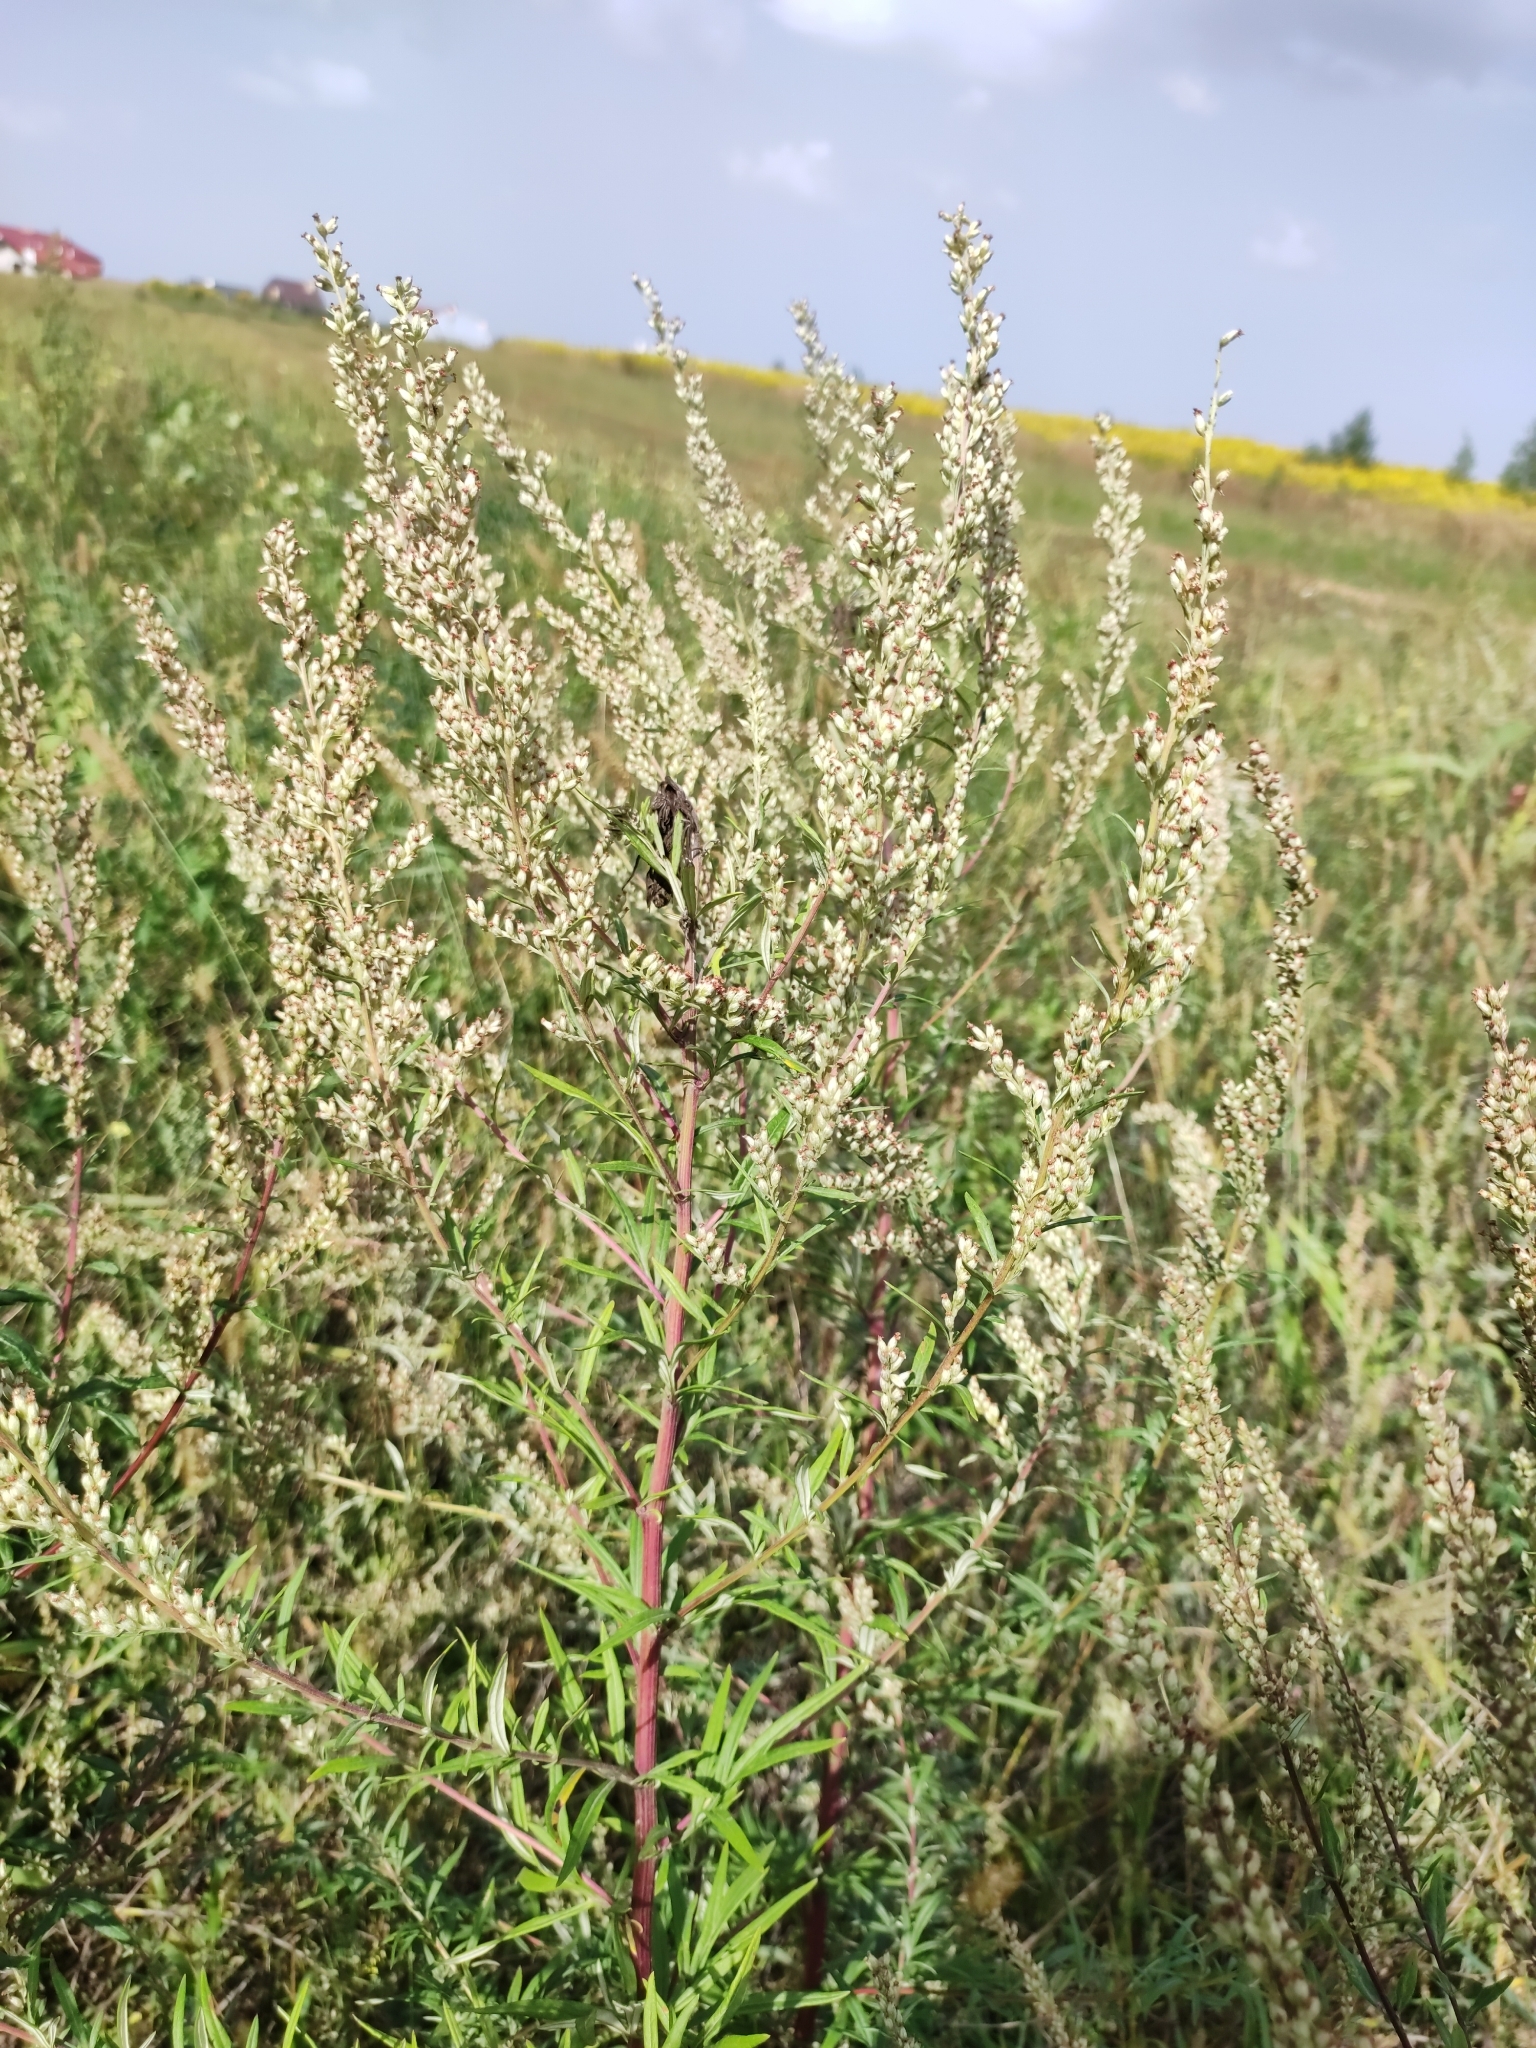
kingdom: Plantae
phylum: Tracheophyta
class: Magnoliopsida
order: Asterales
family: Asteraceae
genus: Artemisia
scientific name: Artemisia vulgaris
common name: Mugwort
